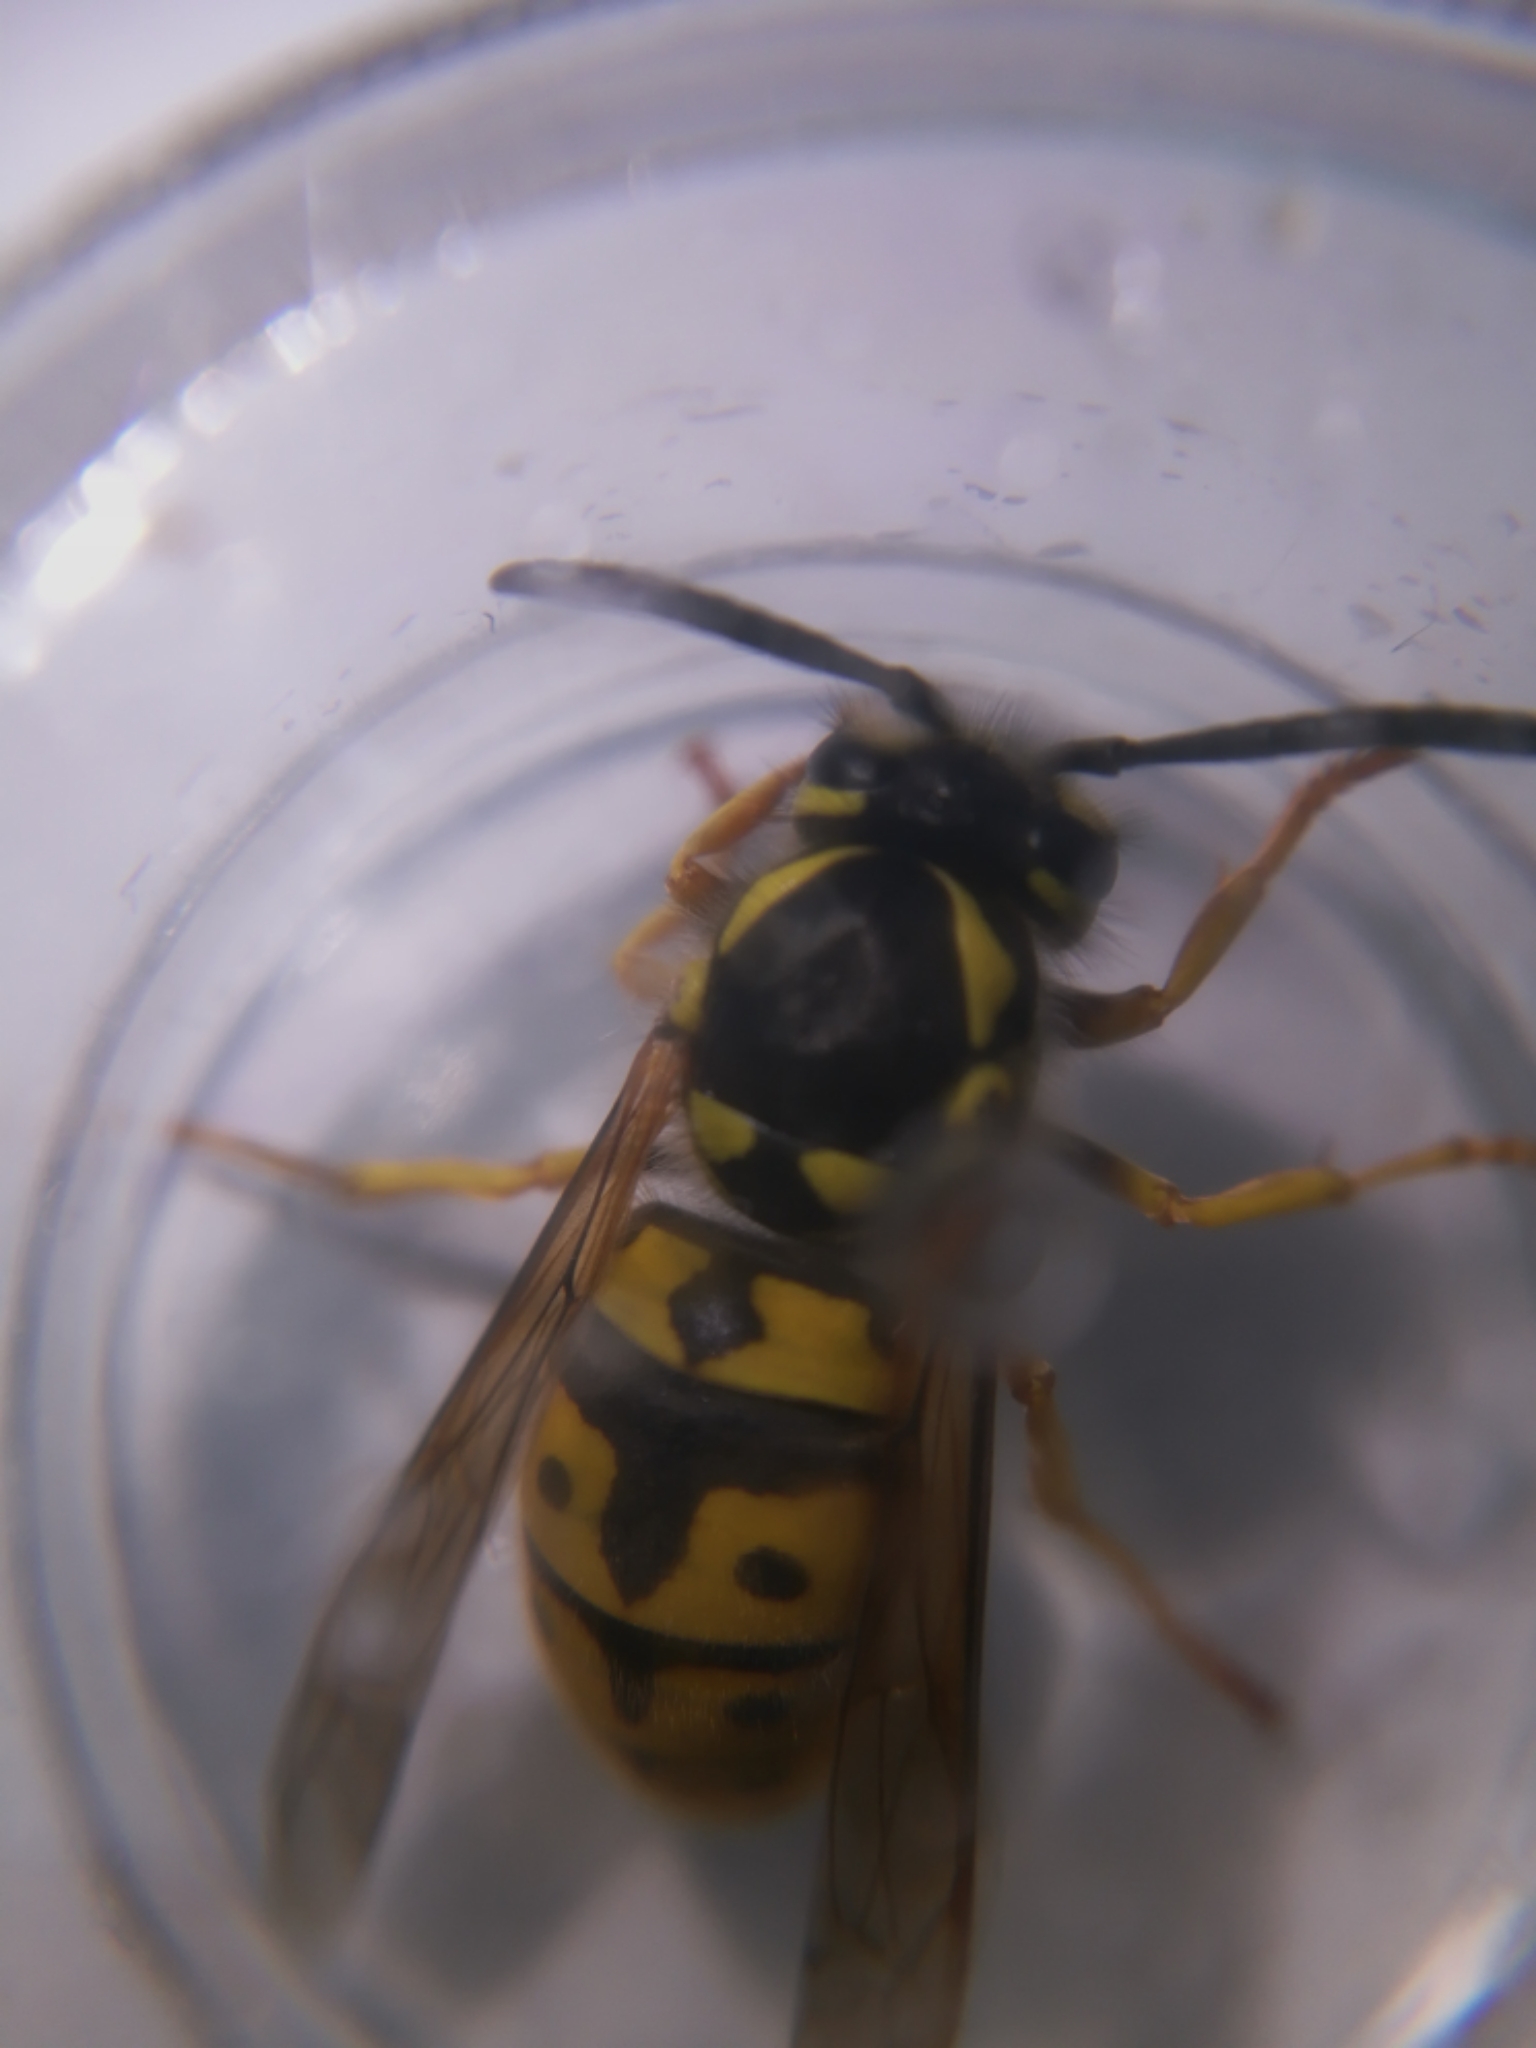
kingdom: Animalia
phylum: Arthropoda
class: Insecta
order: Hymenoptera
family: Vespidae
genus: Vespula
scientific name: Vespula germanica
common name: German wasp
